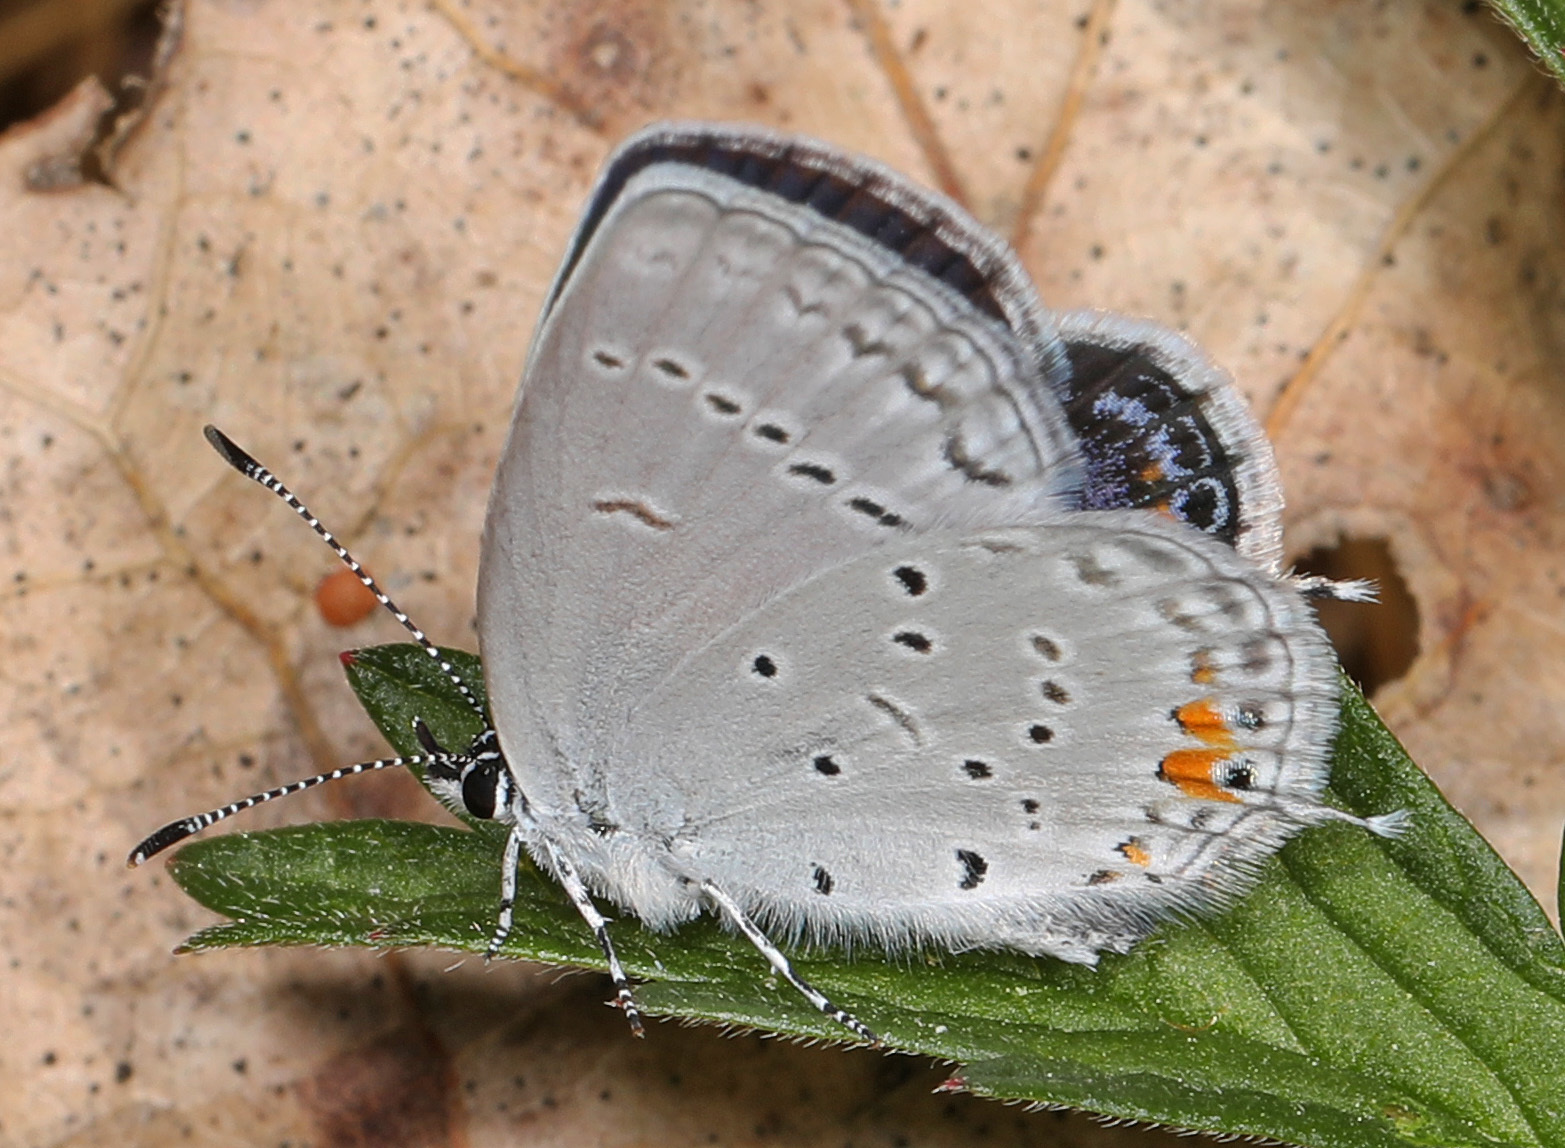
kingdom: Animalia
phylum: Arthropoda
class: Insecta
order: Lepidoptera
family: Lycaenidae
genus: Elkalyce
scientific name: Elkalyce comyntas
